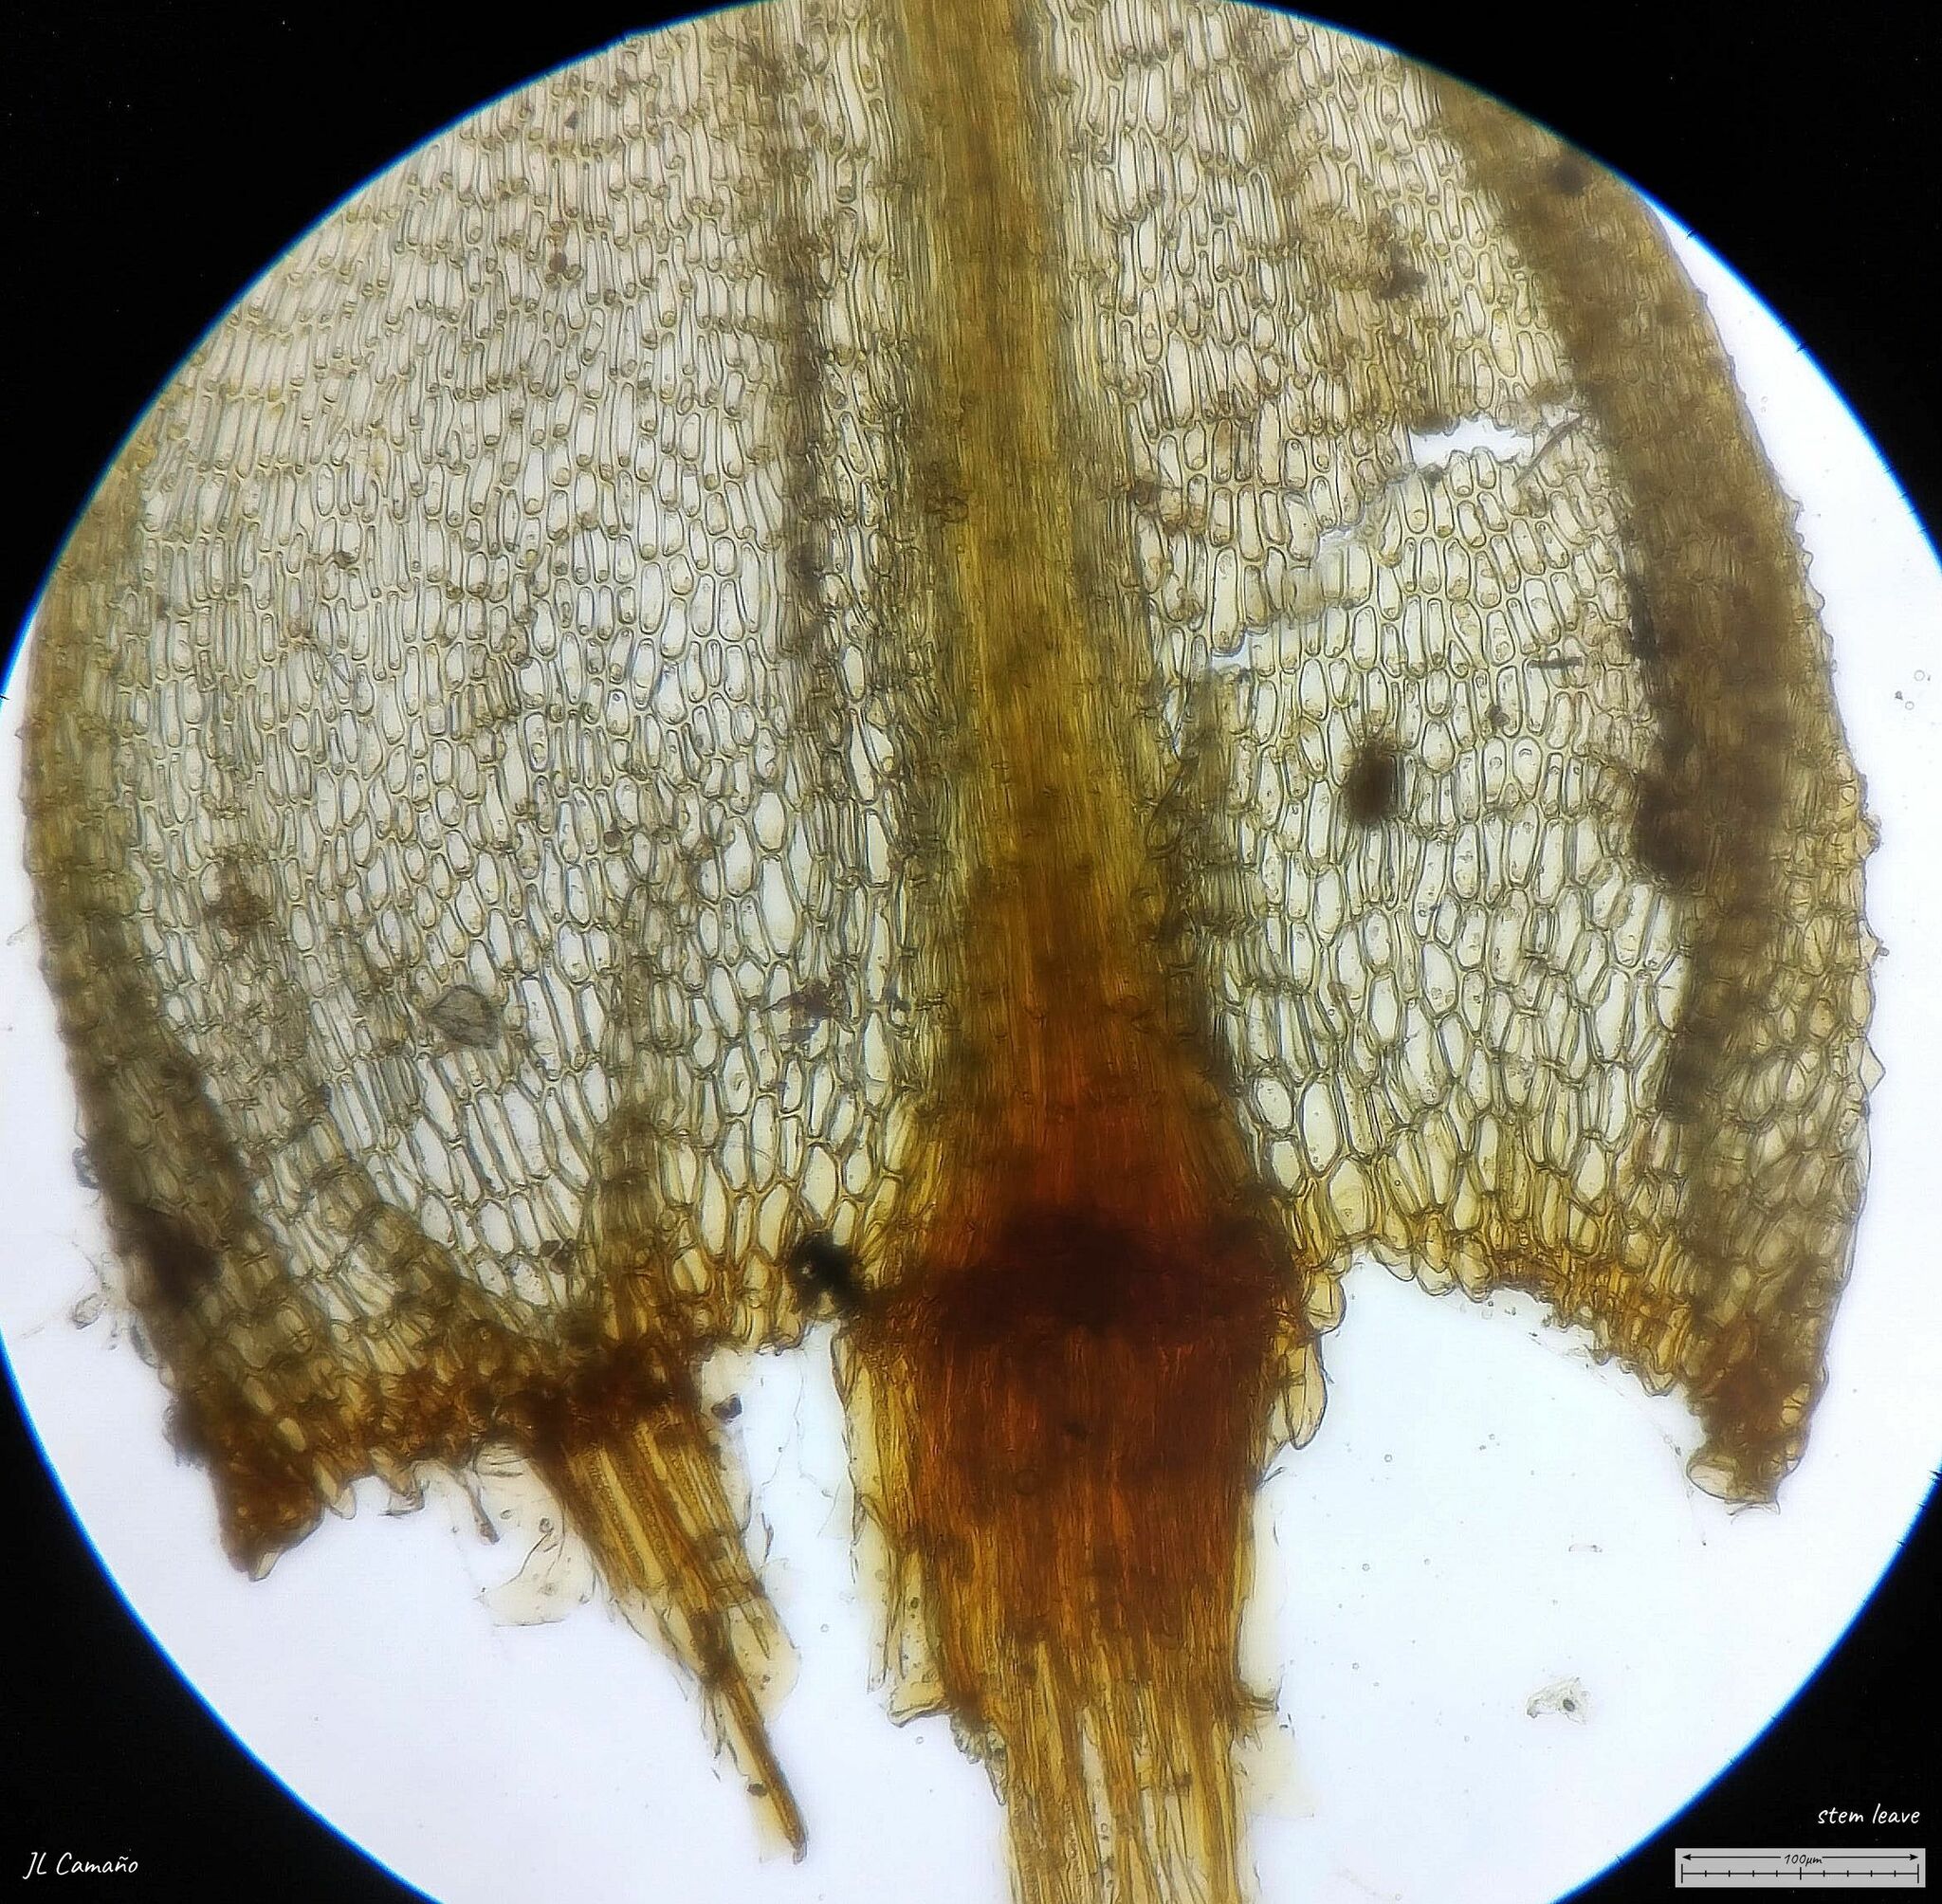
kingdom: Plantae
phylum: Bryophyta
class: Bryopsida
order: Bartramiales
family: Bartramiaceae
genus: Philonotis
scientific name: Philonotis fontana
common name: Fountain apple-moss
